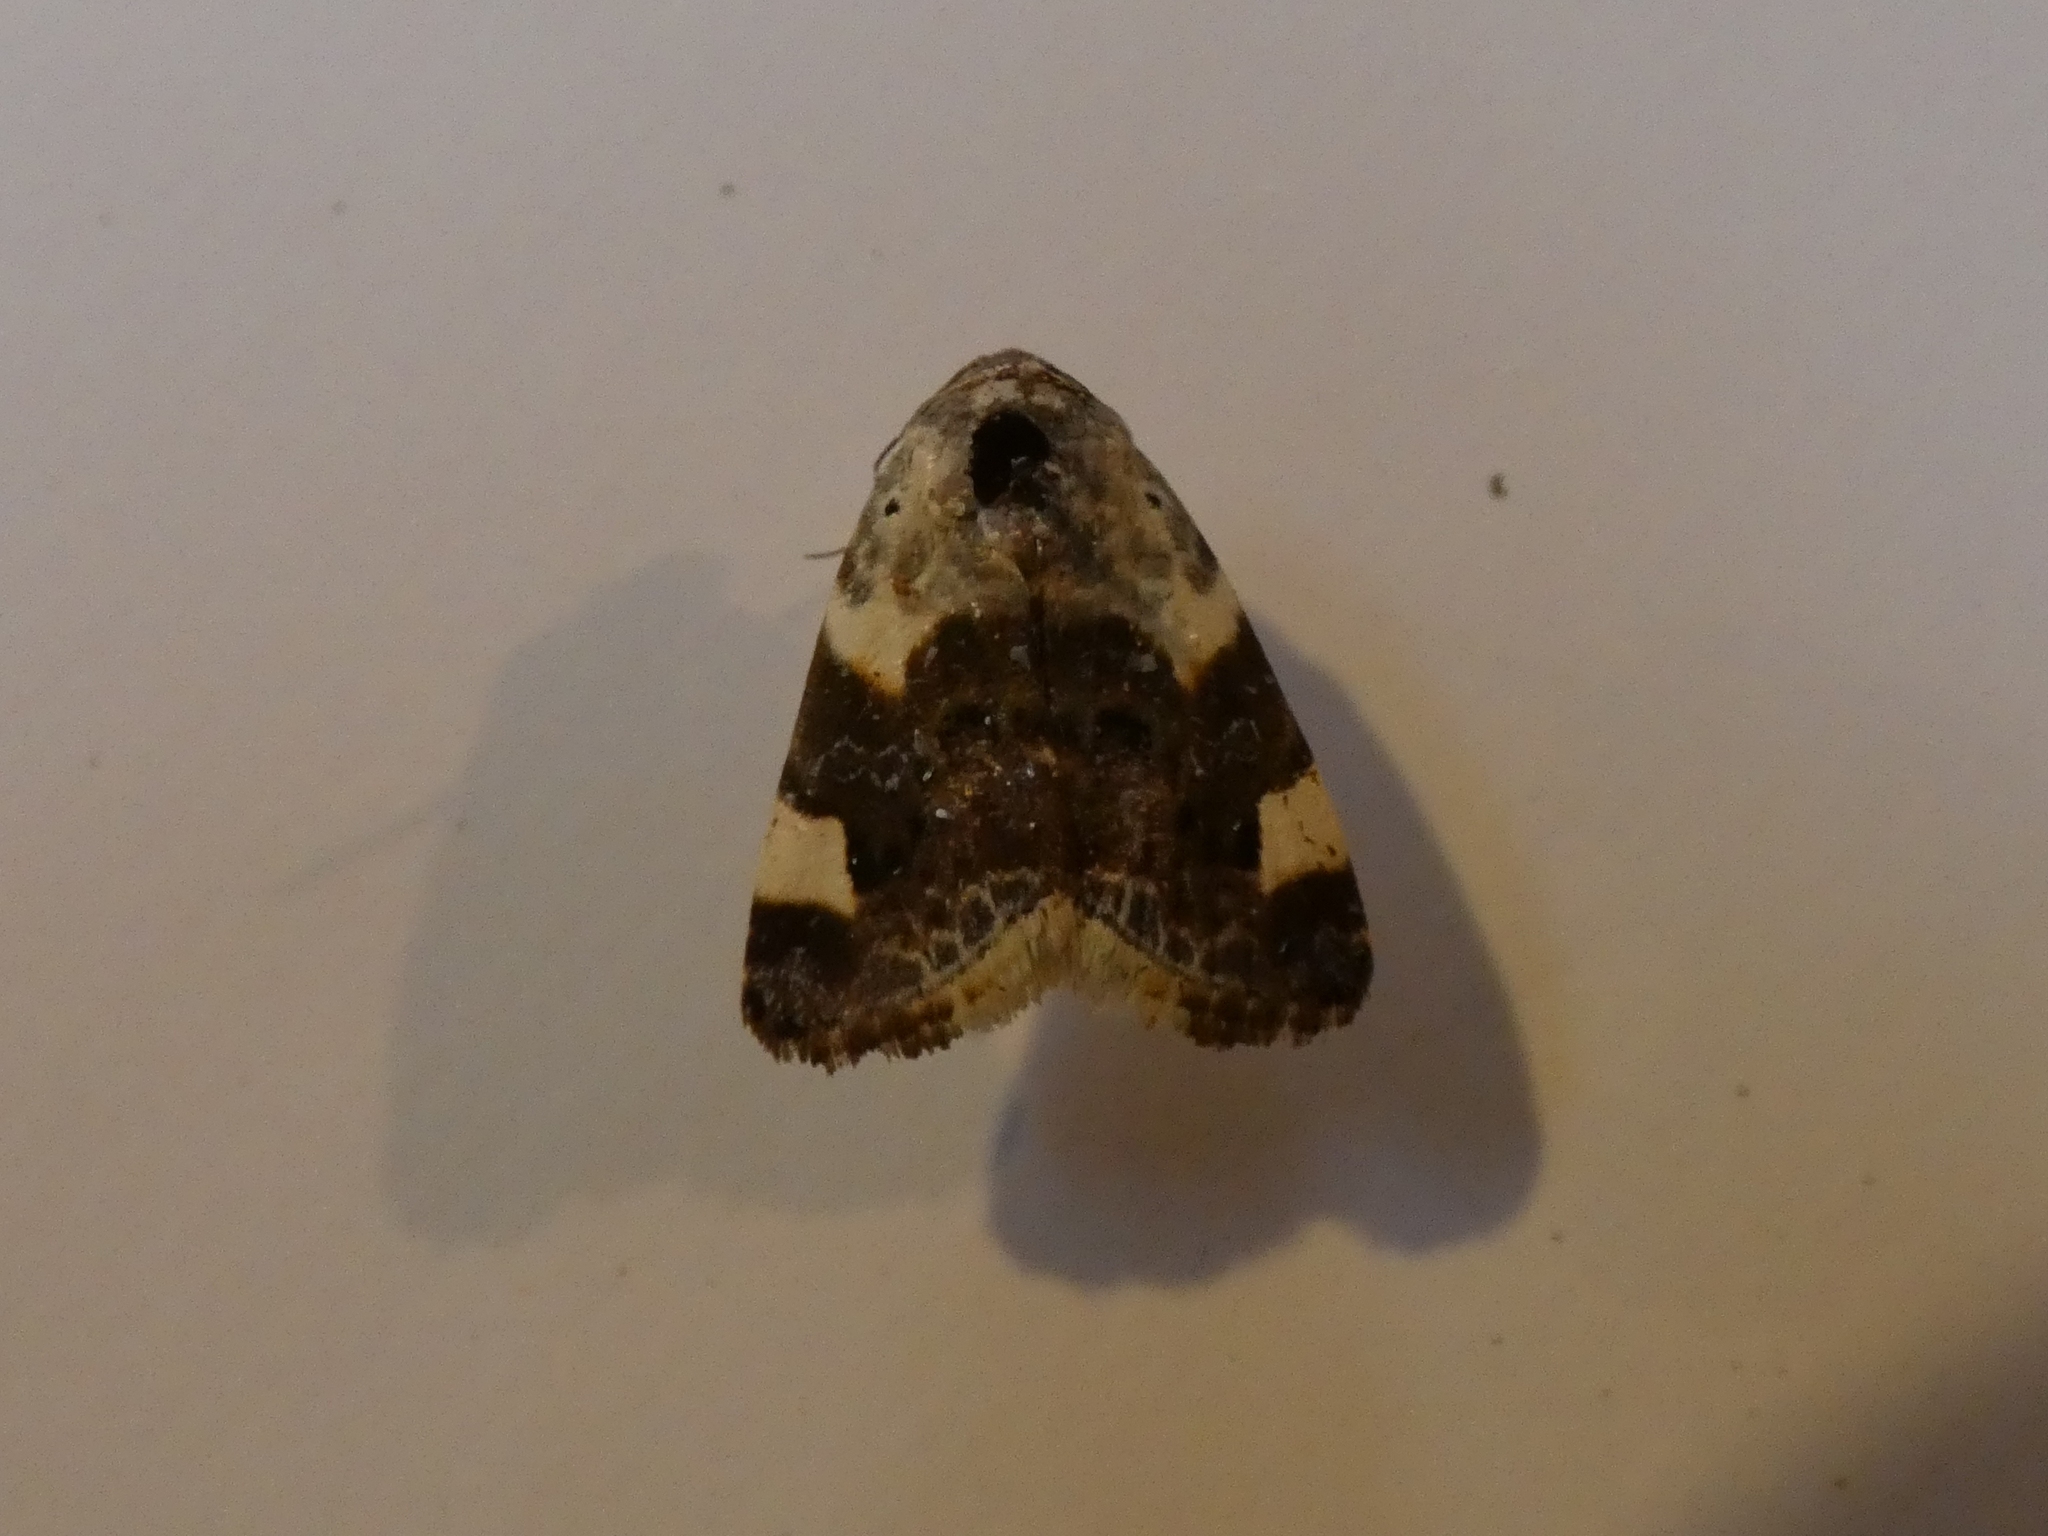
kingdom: Animalia
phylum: Arthropoda
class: Insecta
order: Lepidoptera
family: Noctuidae
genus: Acontia
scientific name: Acontia lucida
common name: Pale shoulder
